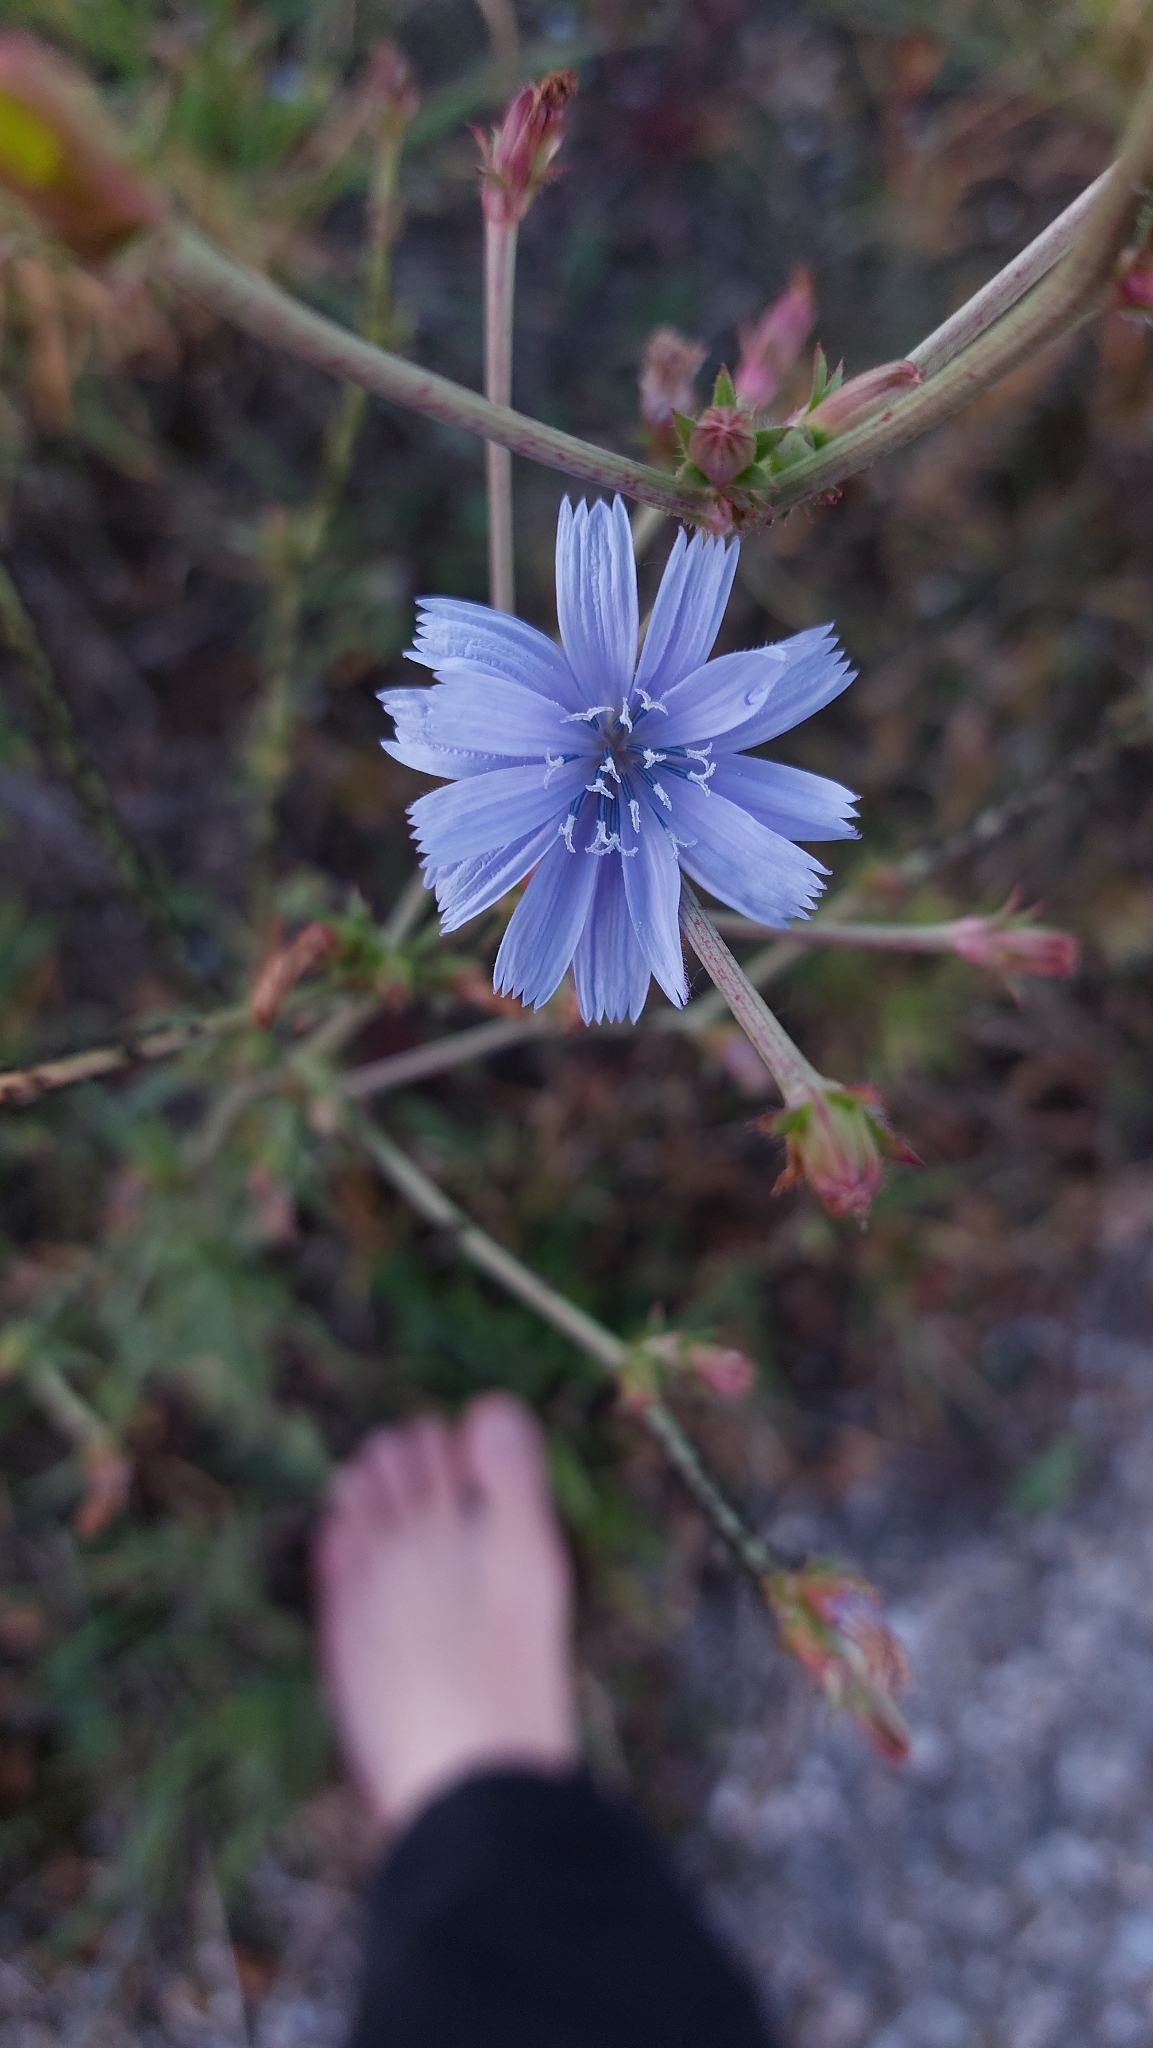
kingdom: Plantae
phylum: Tracheophyta
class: Magnoliopsida
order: Asterales
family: Asteraceae
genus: Cichorium
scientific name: Cichorium intybus
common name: Chicory
